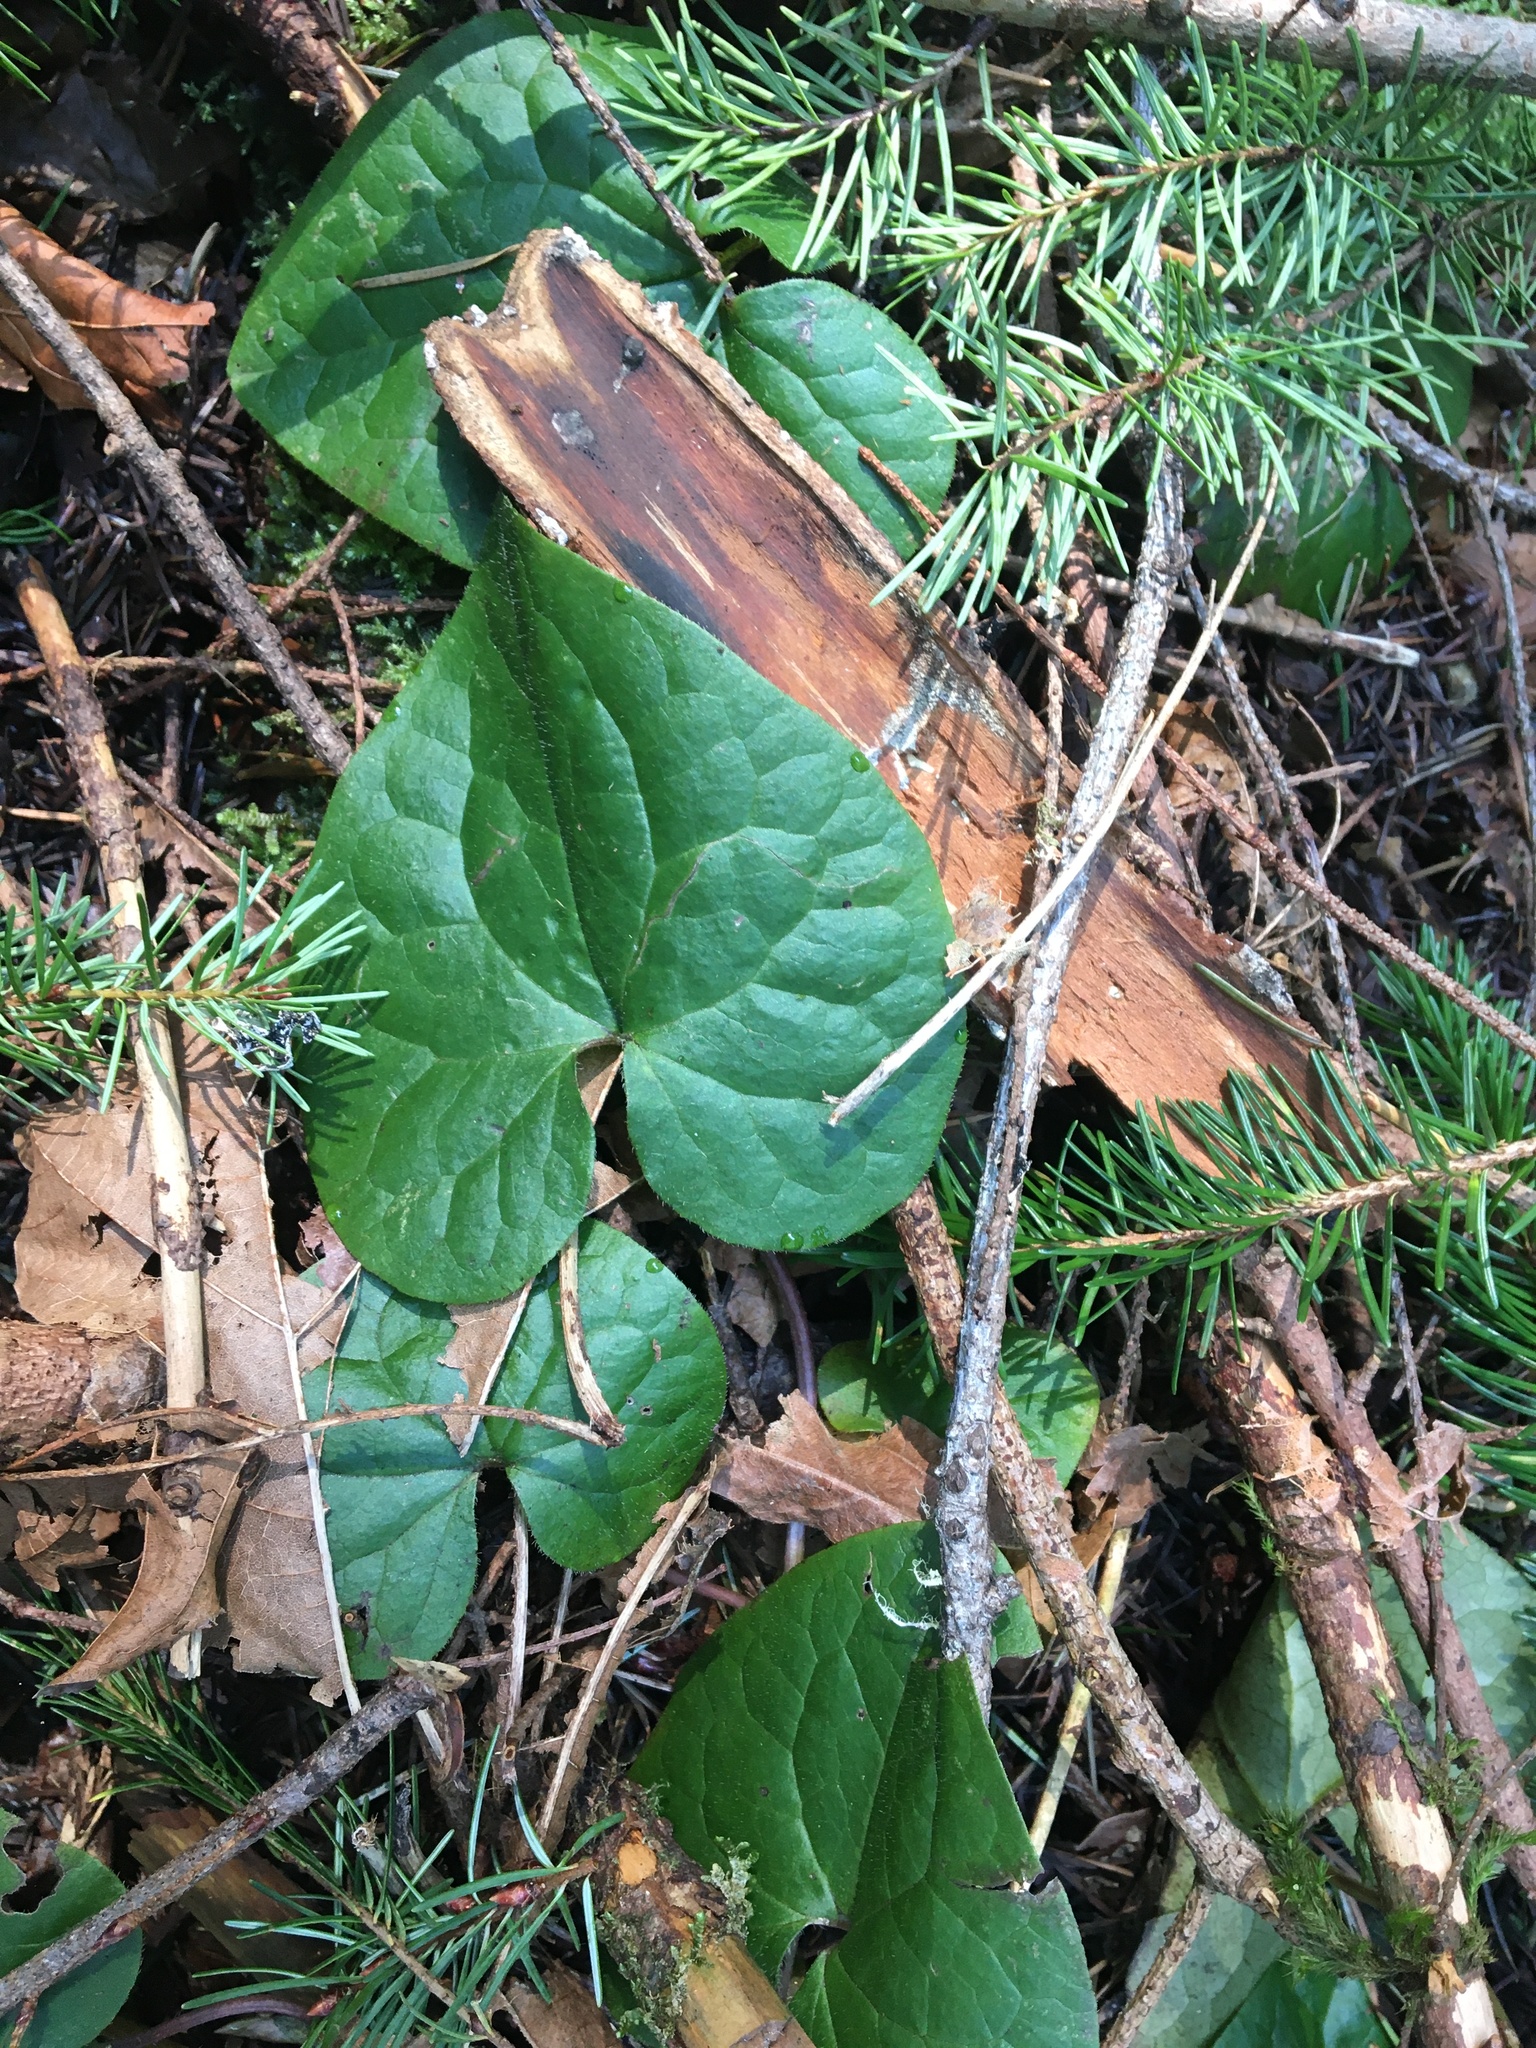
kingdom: Plantae
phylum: Tracheophyta
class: Magnoliopsida
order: Piperales
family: Aristolochiaceae
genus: Asarum
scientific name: Asarum caudatum
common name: Wild ginger
